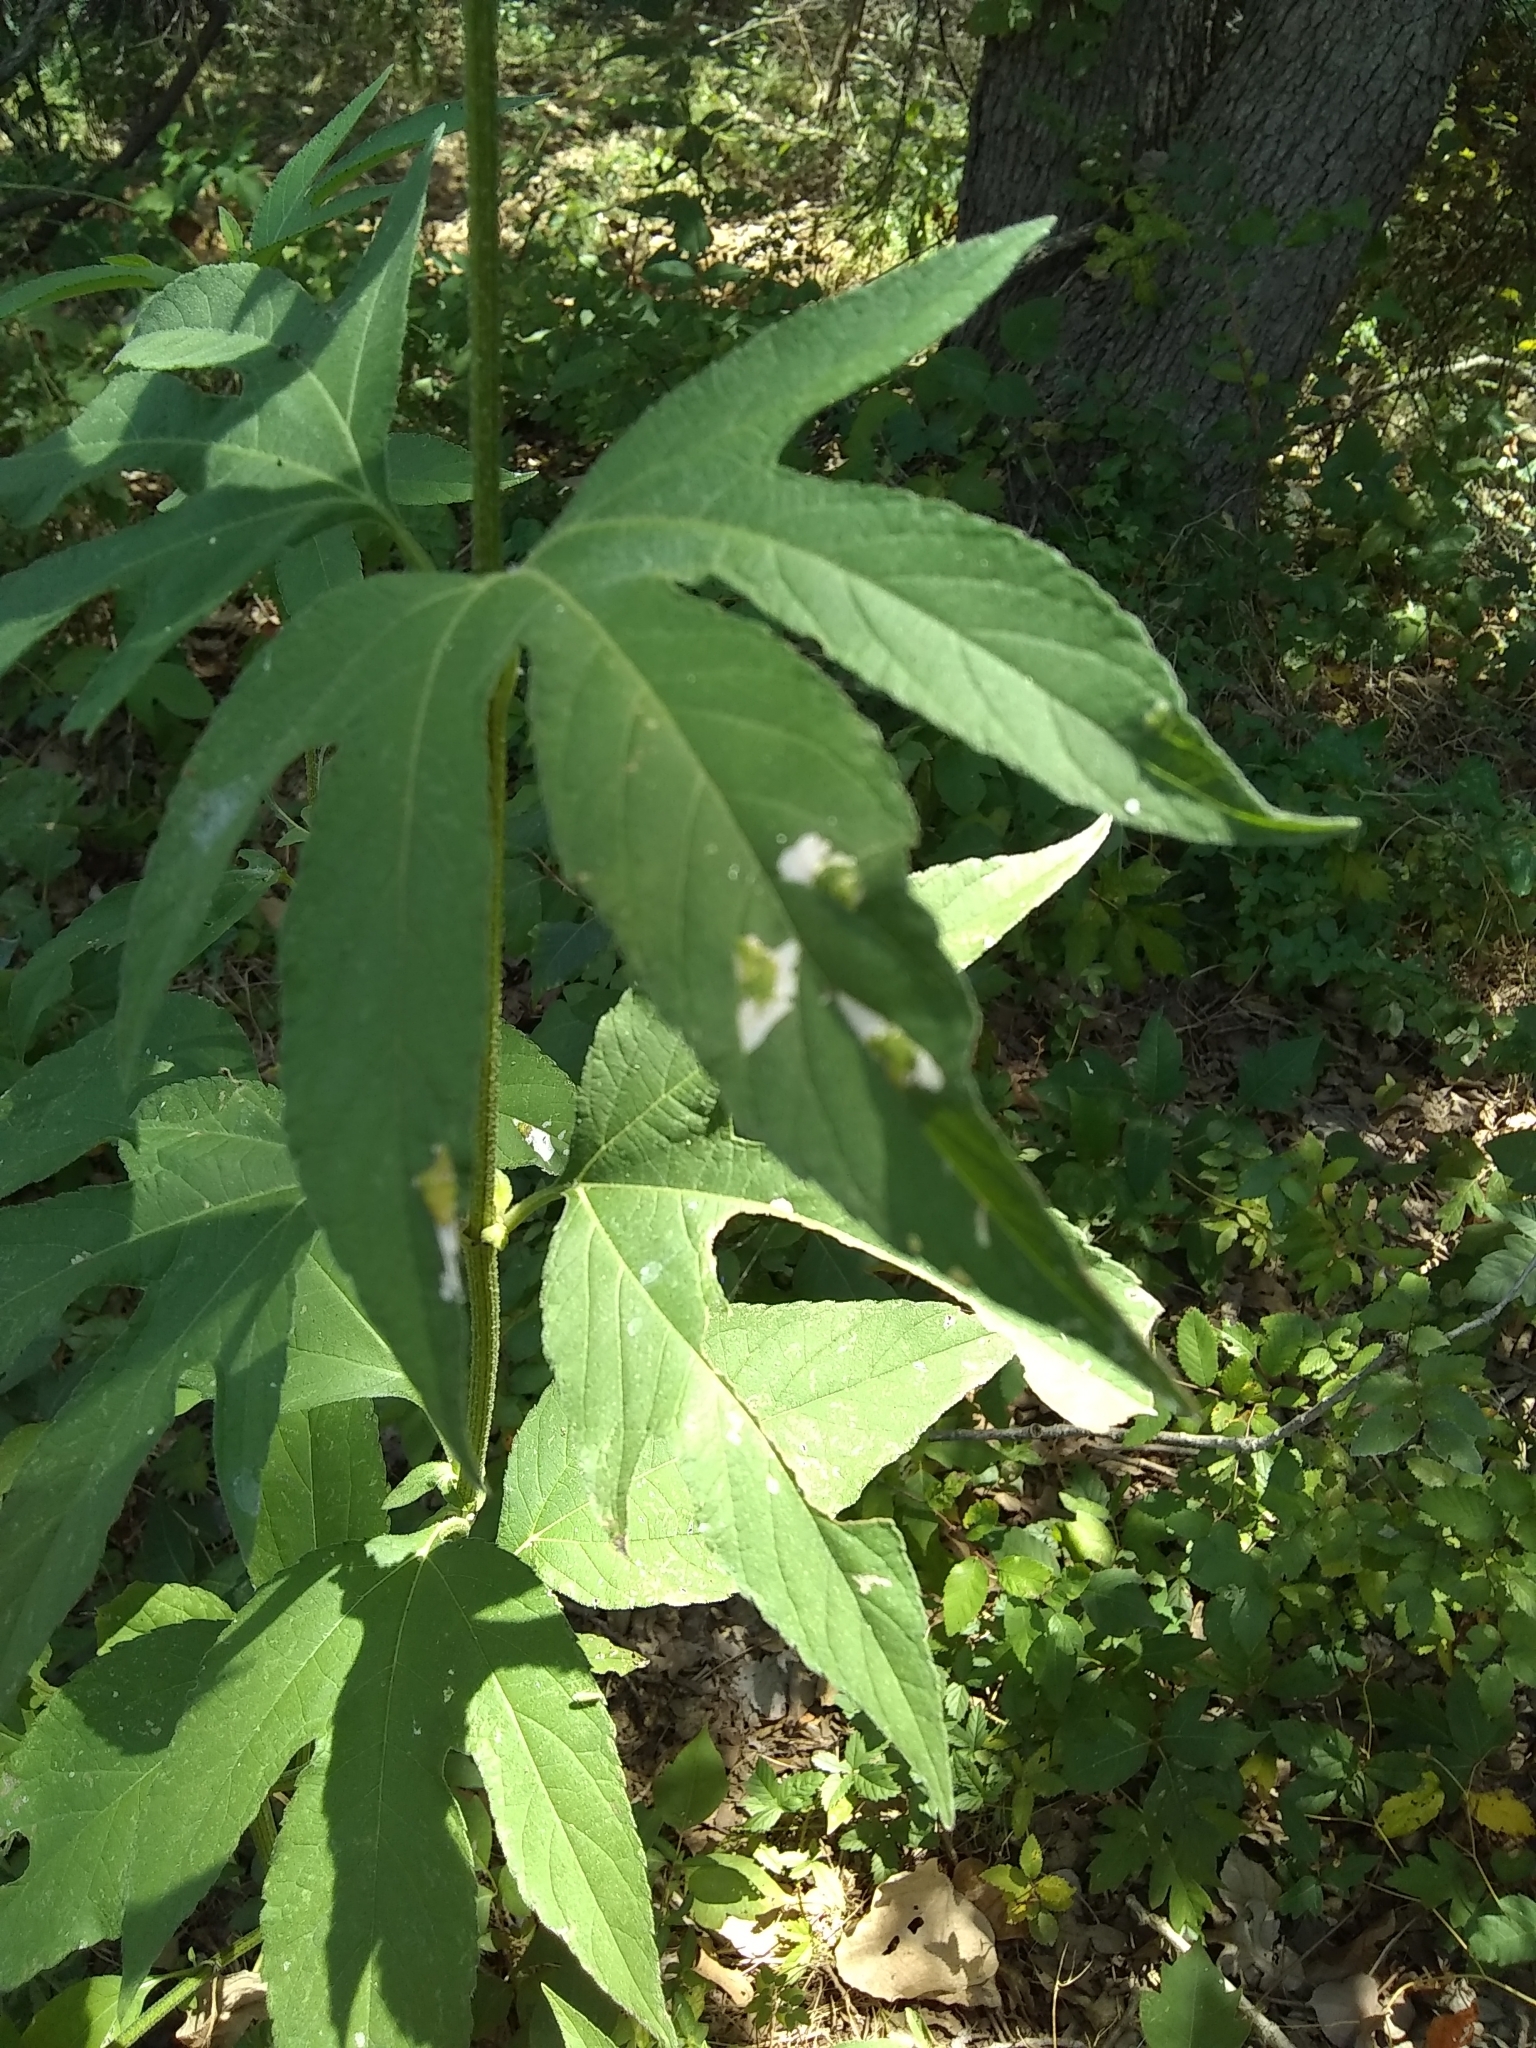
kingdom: Plantae
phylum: Tracheophyta
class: Magnoliopsida
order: Asterales
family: Asteraceae
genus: Ambrosia
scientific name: Ambrosia trifida
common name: Giant ragweed
